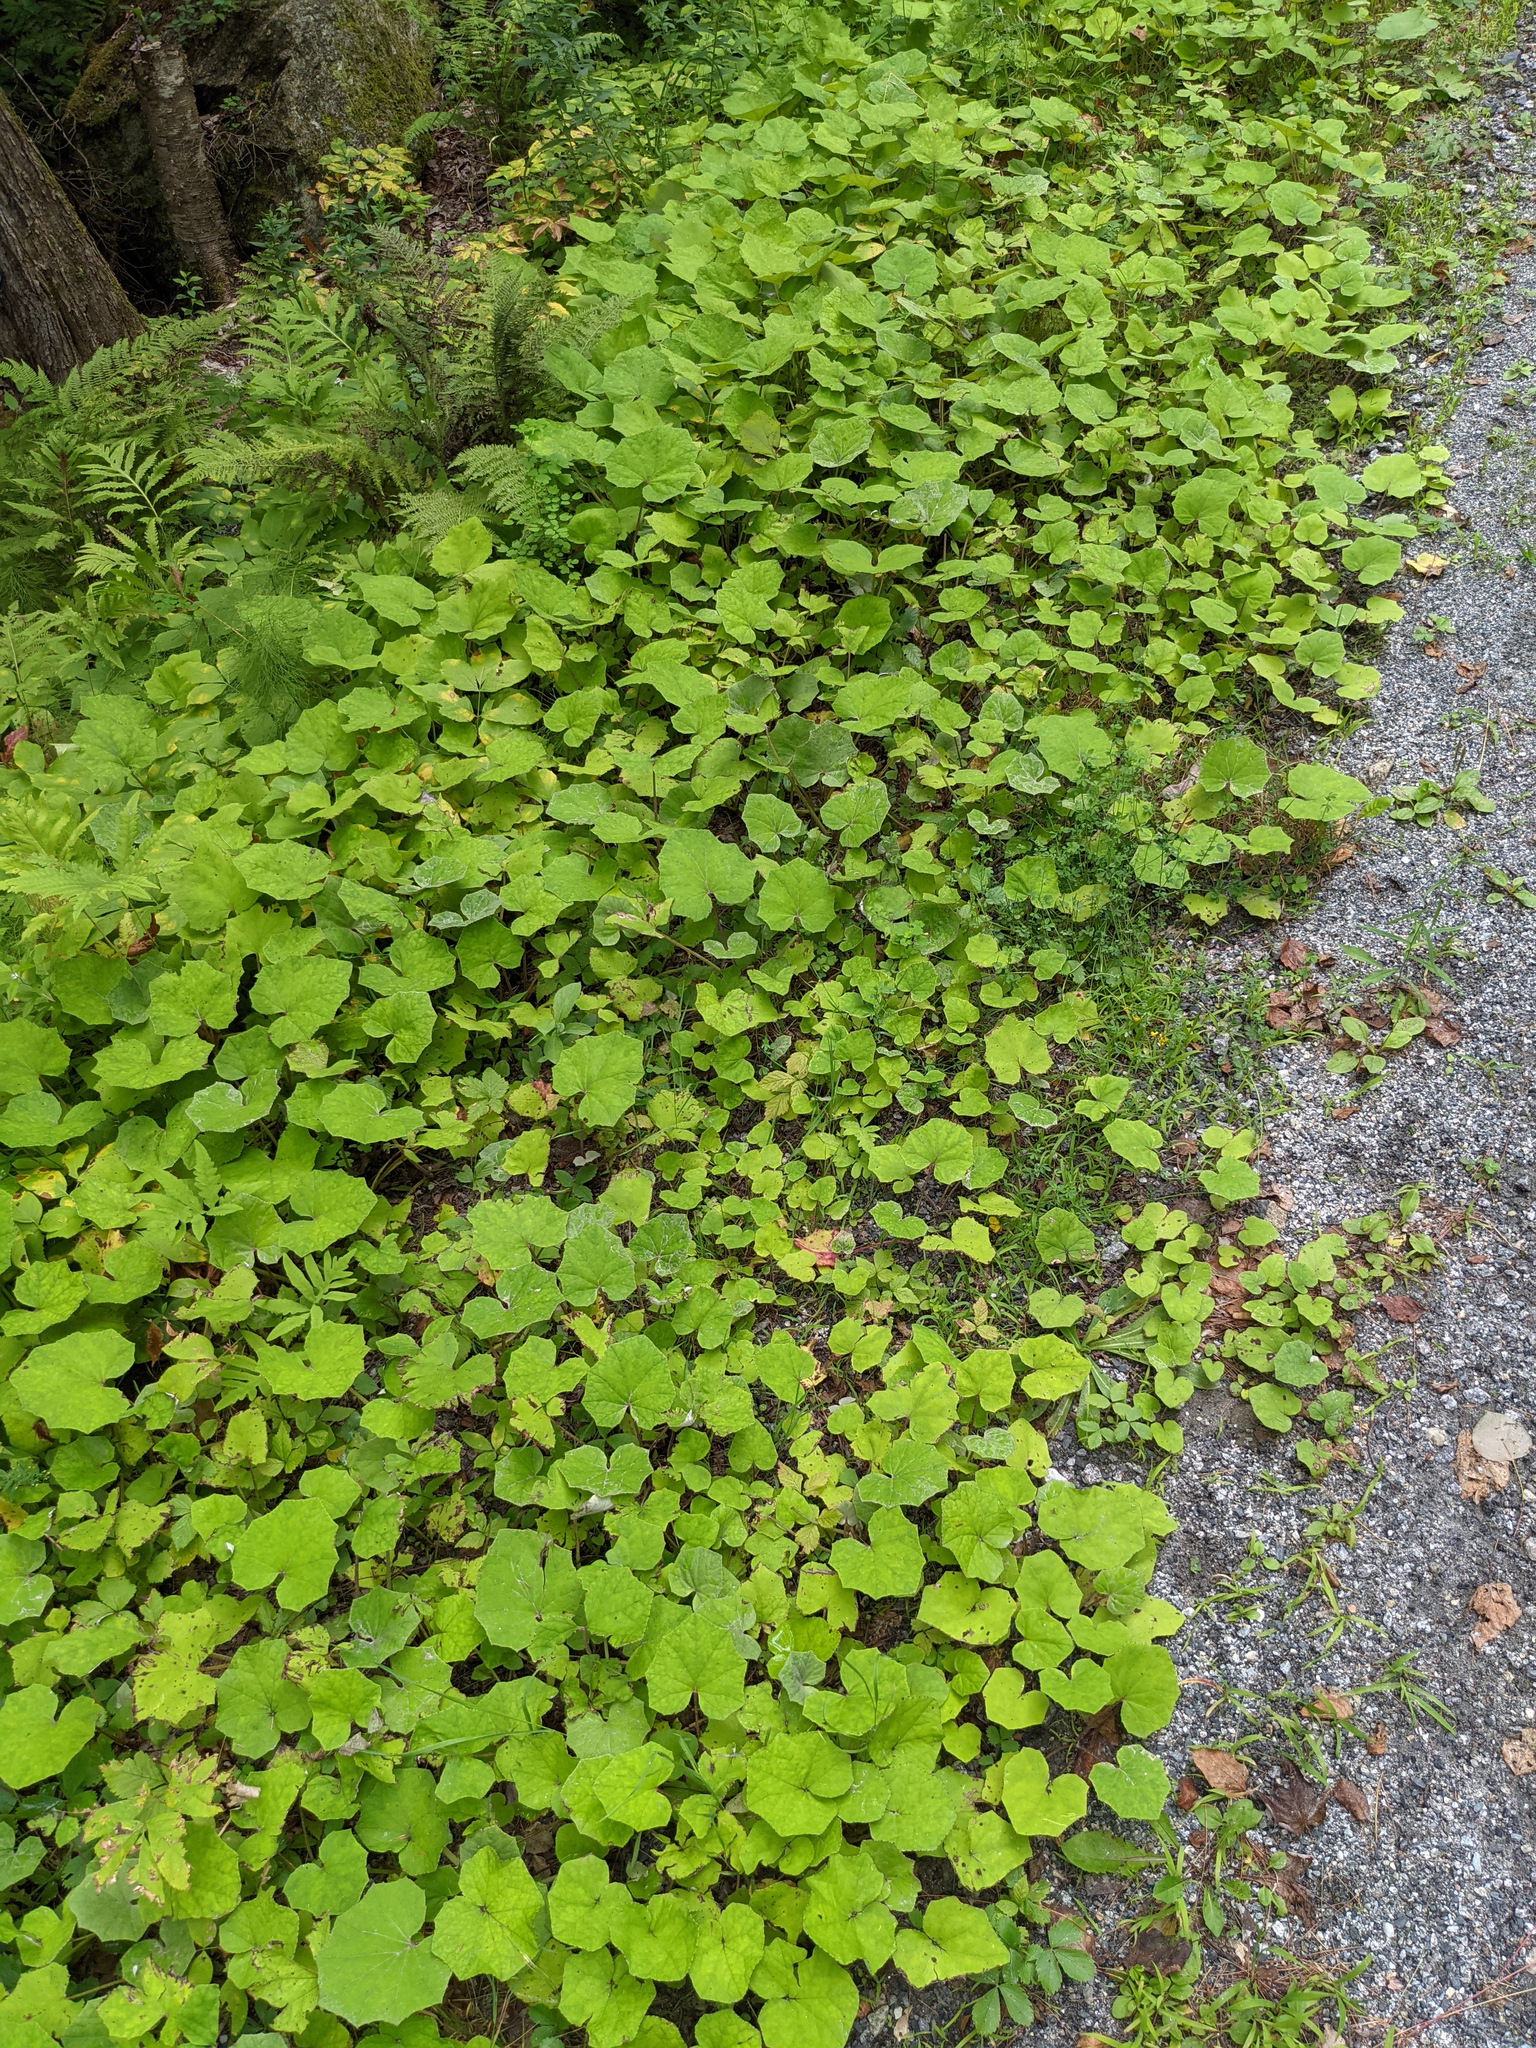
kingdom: Plantae
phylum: Tracheophyta
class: Magnoliopsida
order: Asterales
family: Asteraceae
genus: Tussilago
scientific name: Tussilago farfara
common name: Coltsfoot
